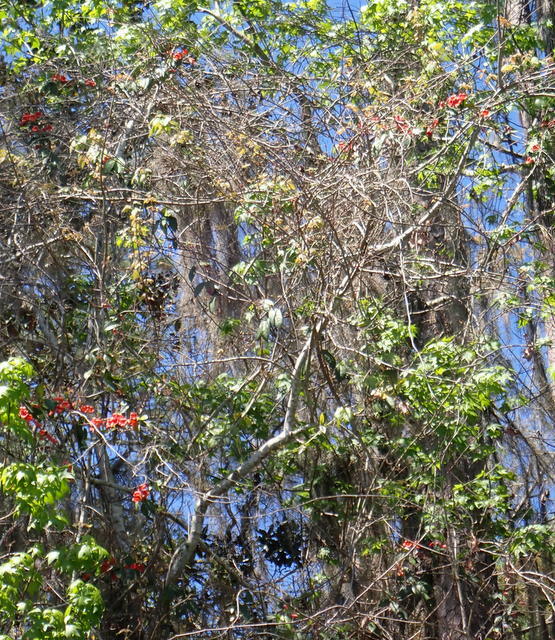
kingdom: Plantae
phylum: Tracheophyta
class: Magnoliopsida
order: Lamiales
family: Bignoniaceae
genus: Bignonia
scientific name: Bignonia capreolata
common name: Crossvine
